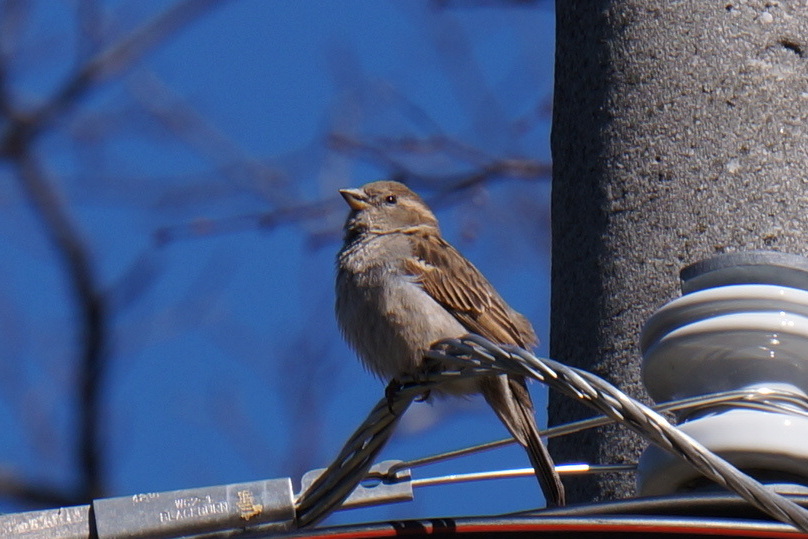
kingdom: Animalia
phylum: Chordata
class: Aves
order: Passeriformes
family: Passeridae
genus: Passer
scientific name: Passer domesticus
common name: House sparrow
